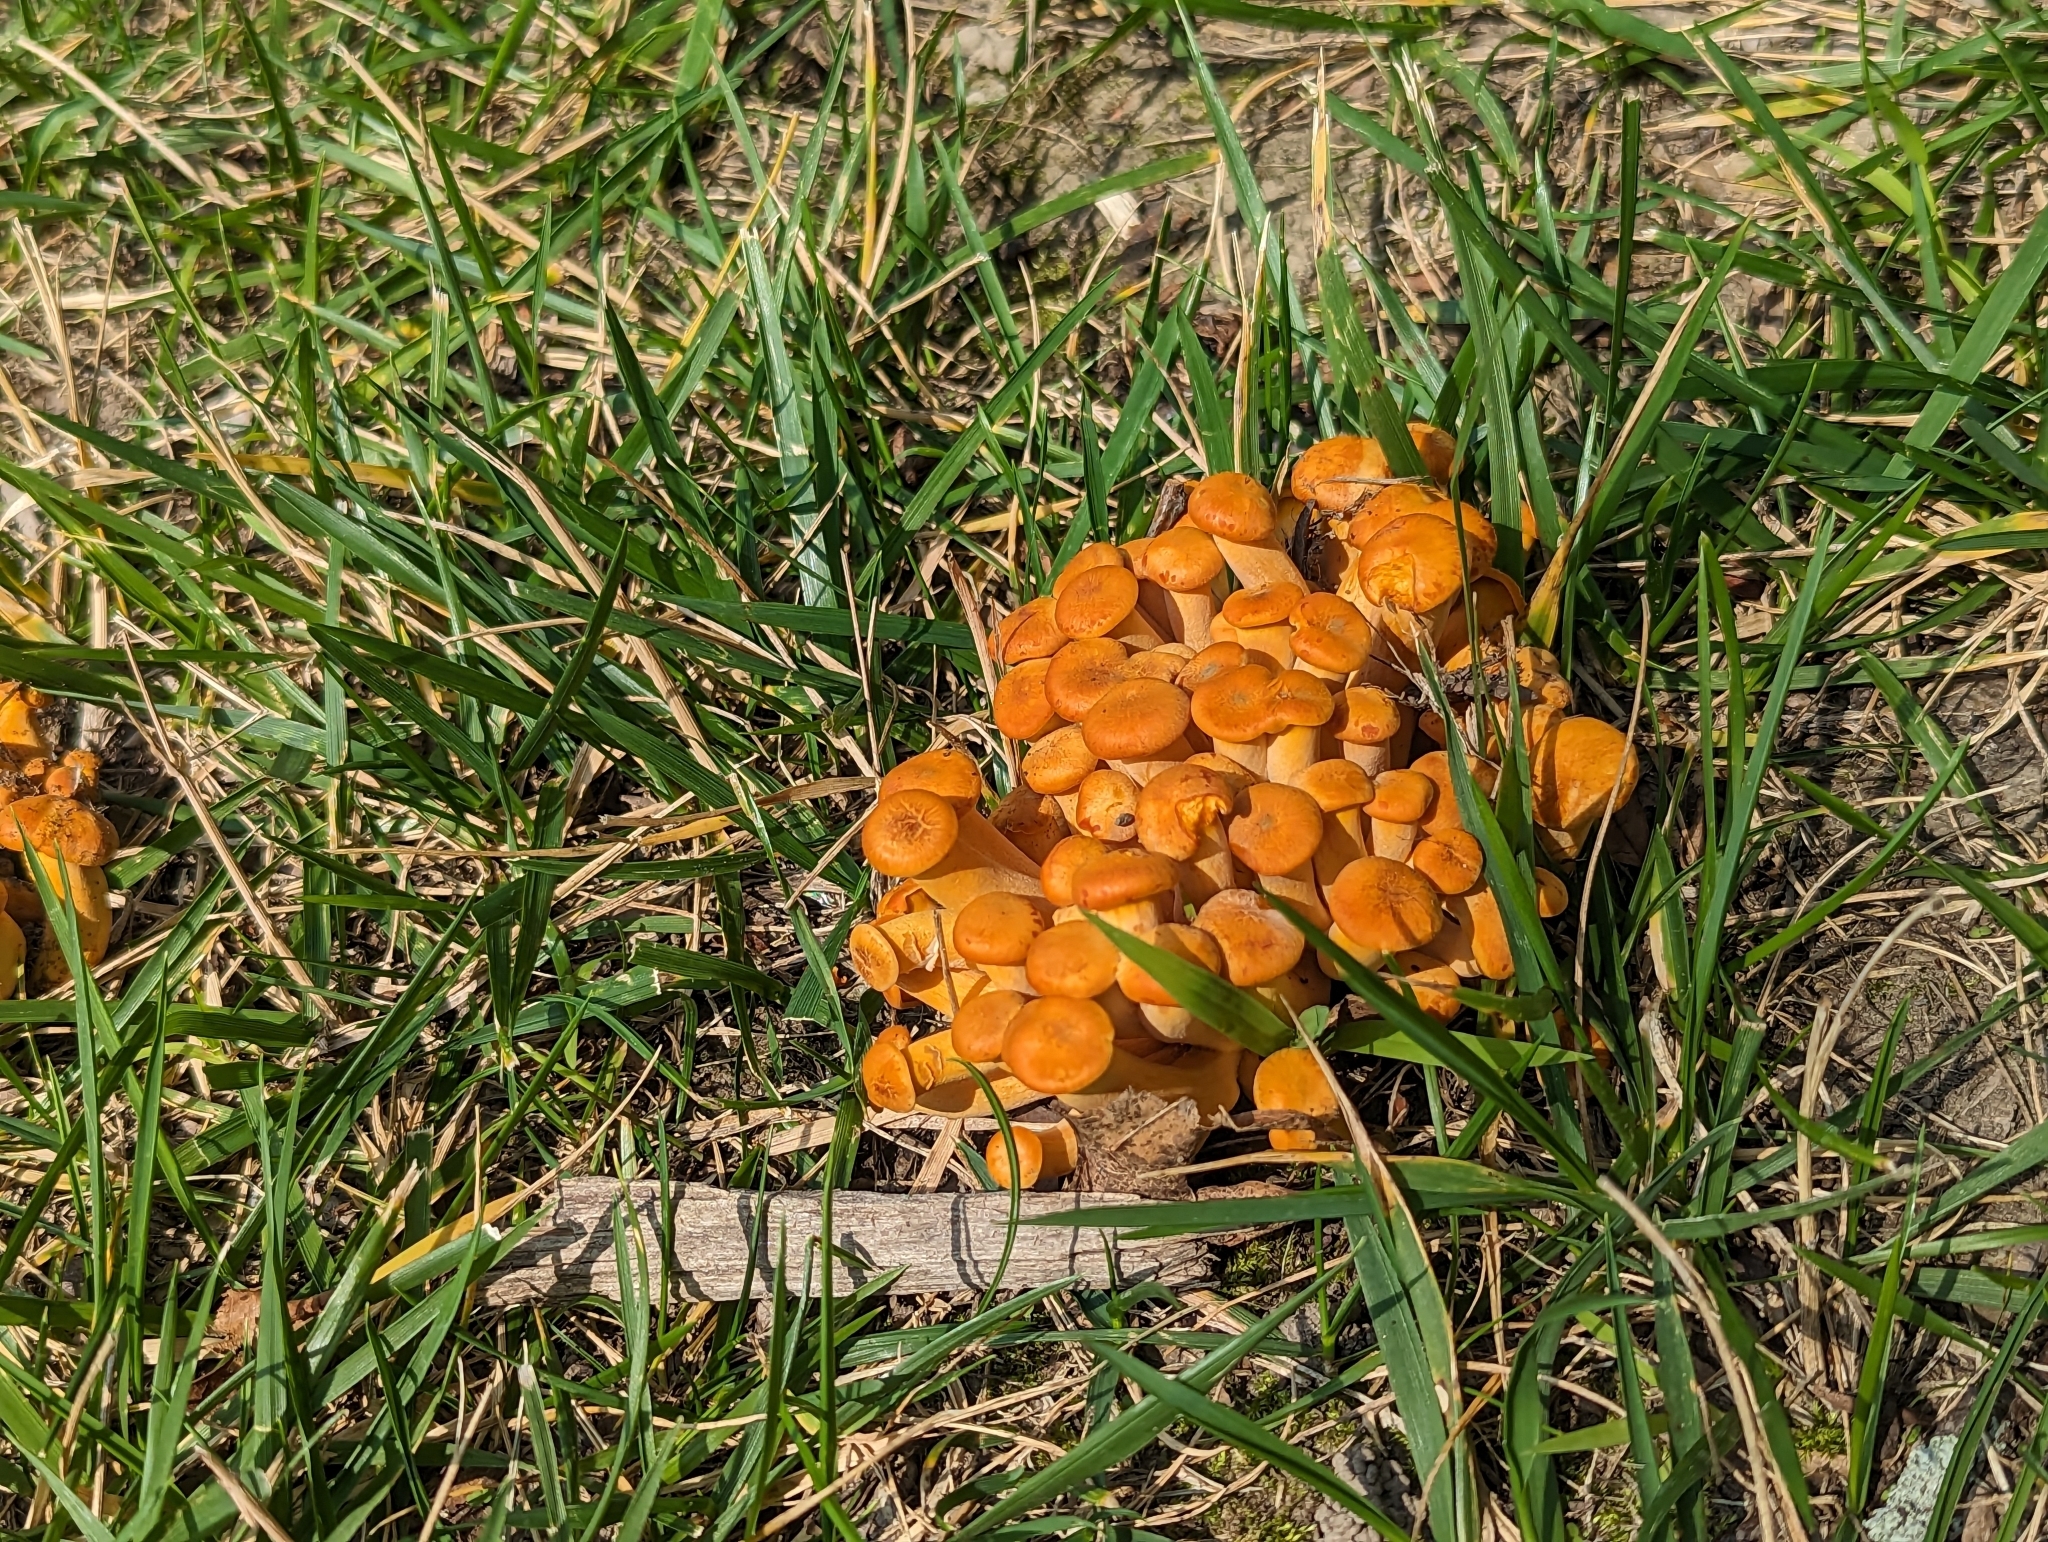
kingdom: Fungi
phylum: Basidiomycota
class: Agaricomycetes
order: Agaricales
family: Omphalotaceae
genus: Omphalotus
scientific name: Omphalotus illudens
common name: Jack o lantern
